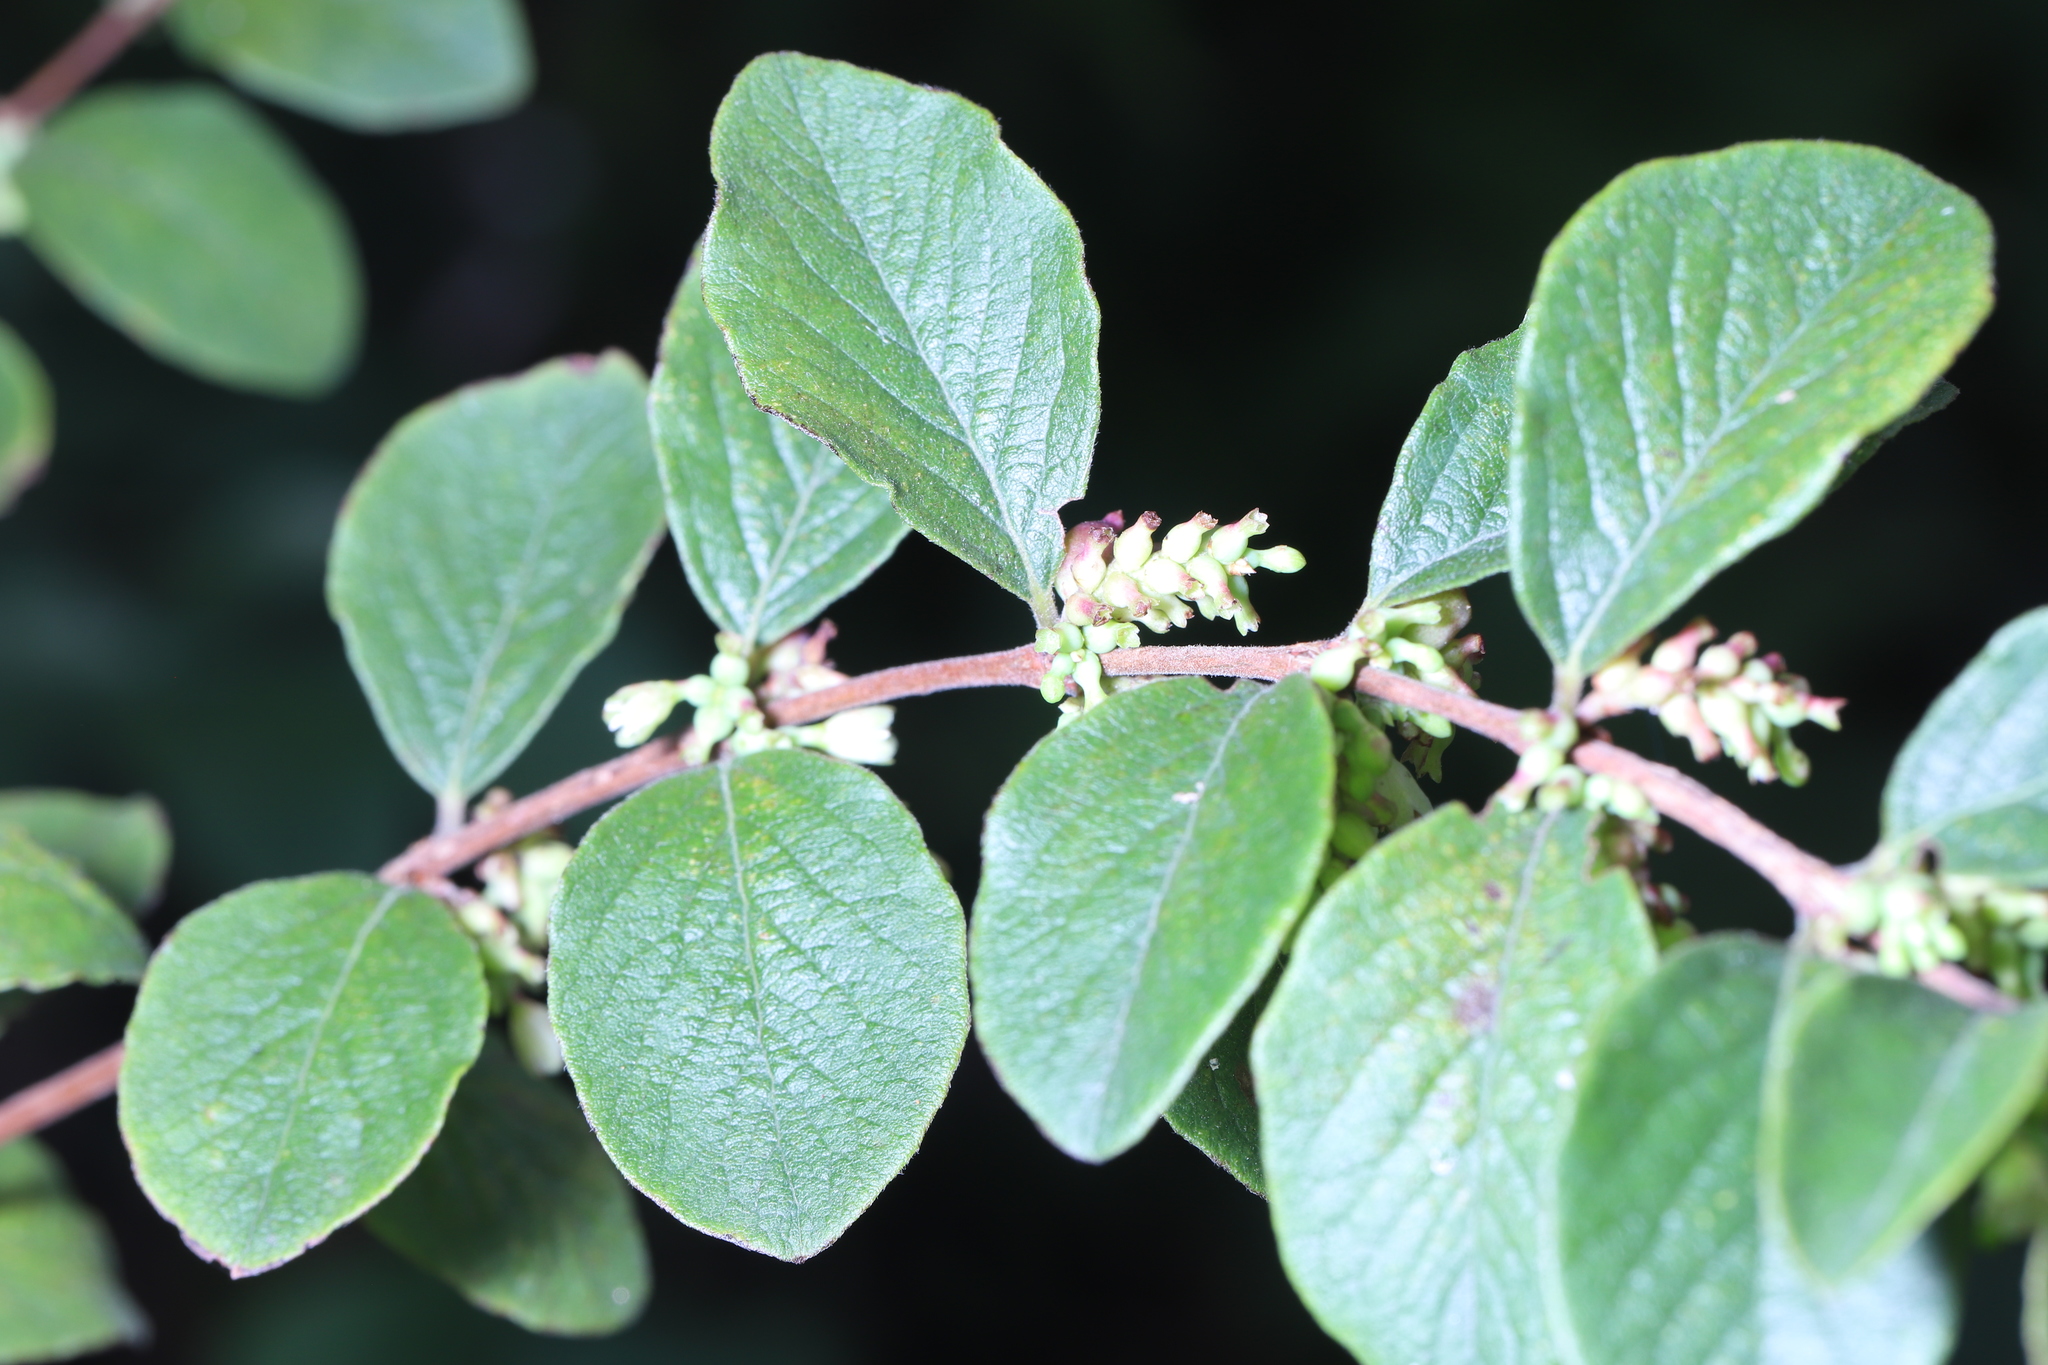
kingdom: Plantae
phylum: Tracheophyta
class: Magnoliopsida
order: Dipsacales
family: Caprifoliaceae
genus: Symphoricarpos
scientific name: Symphoricarpos orbiculatus
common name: Coralberry
